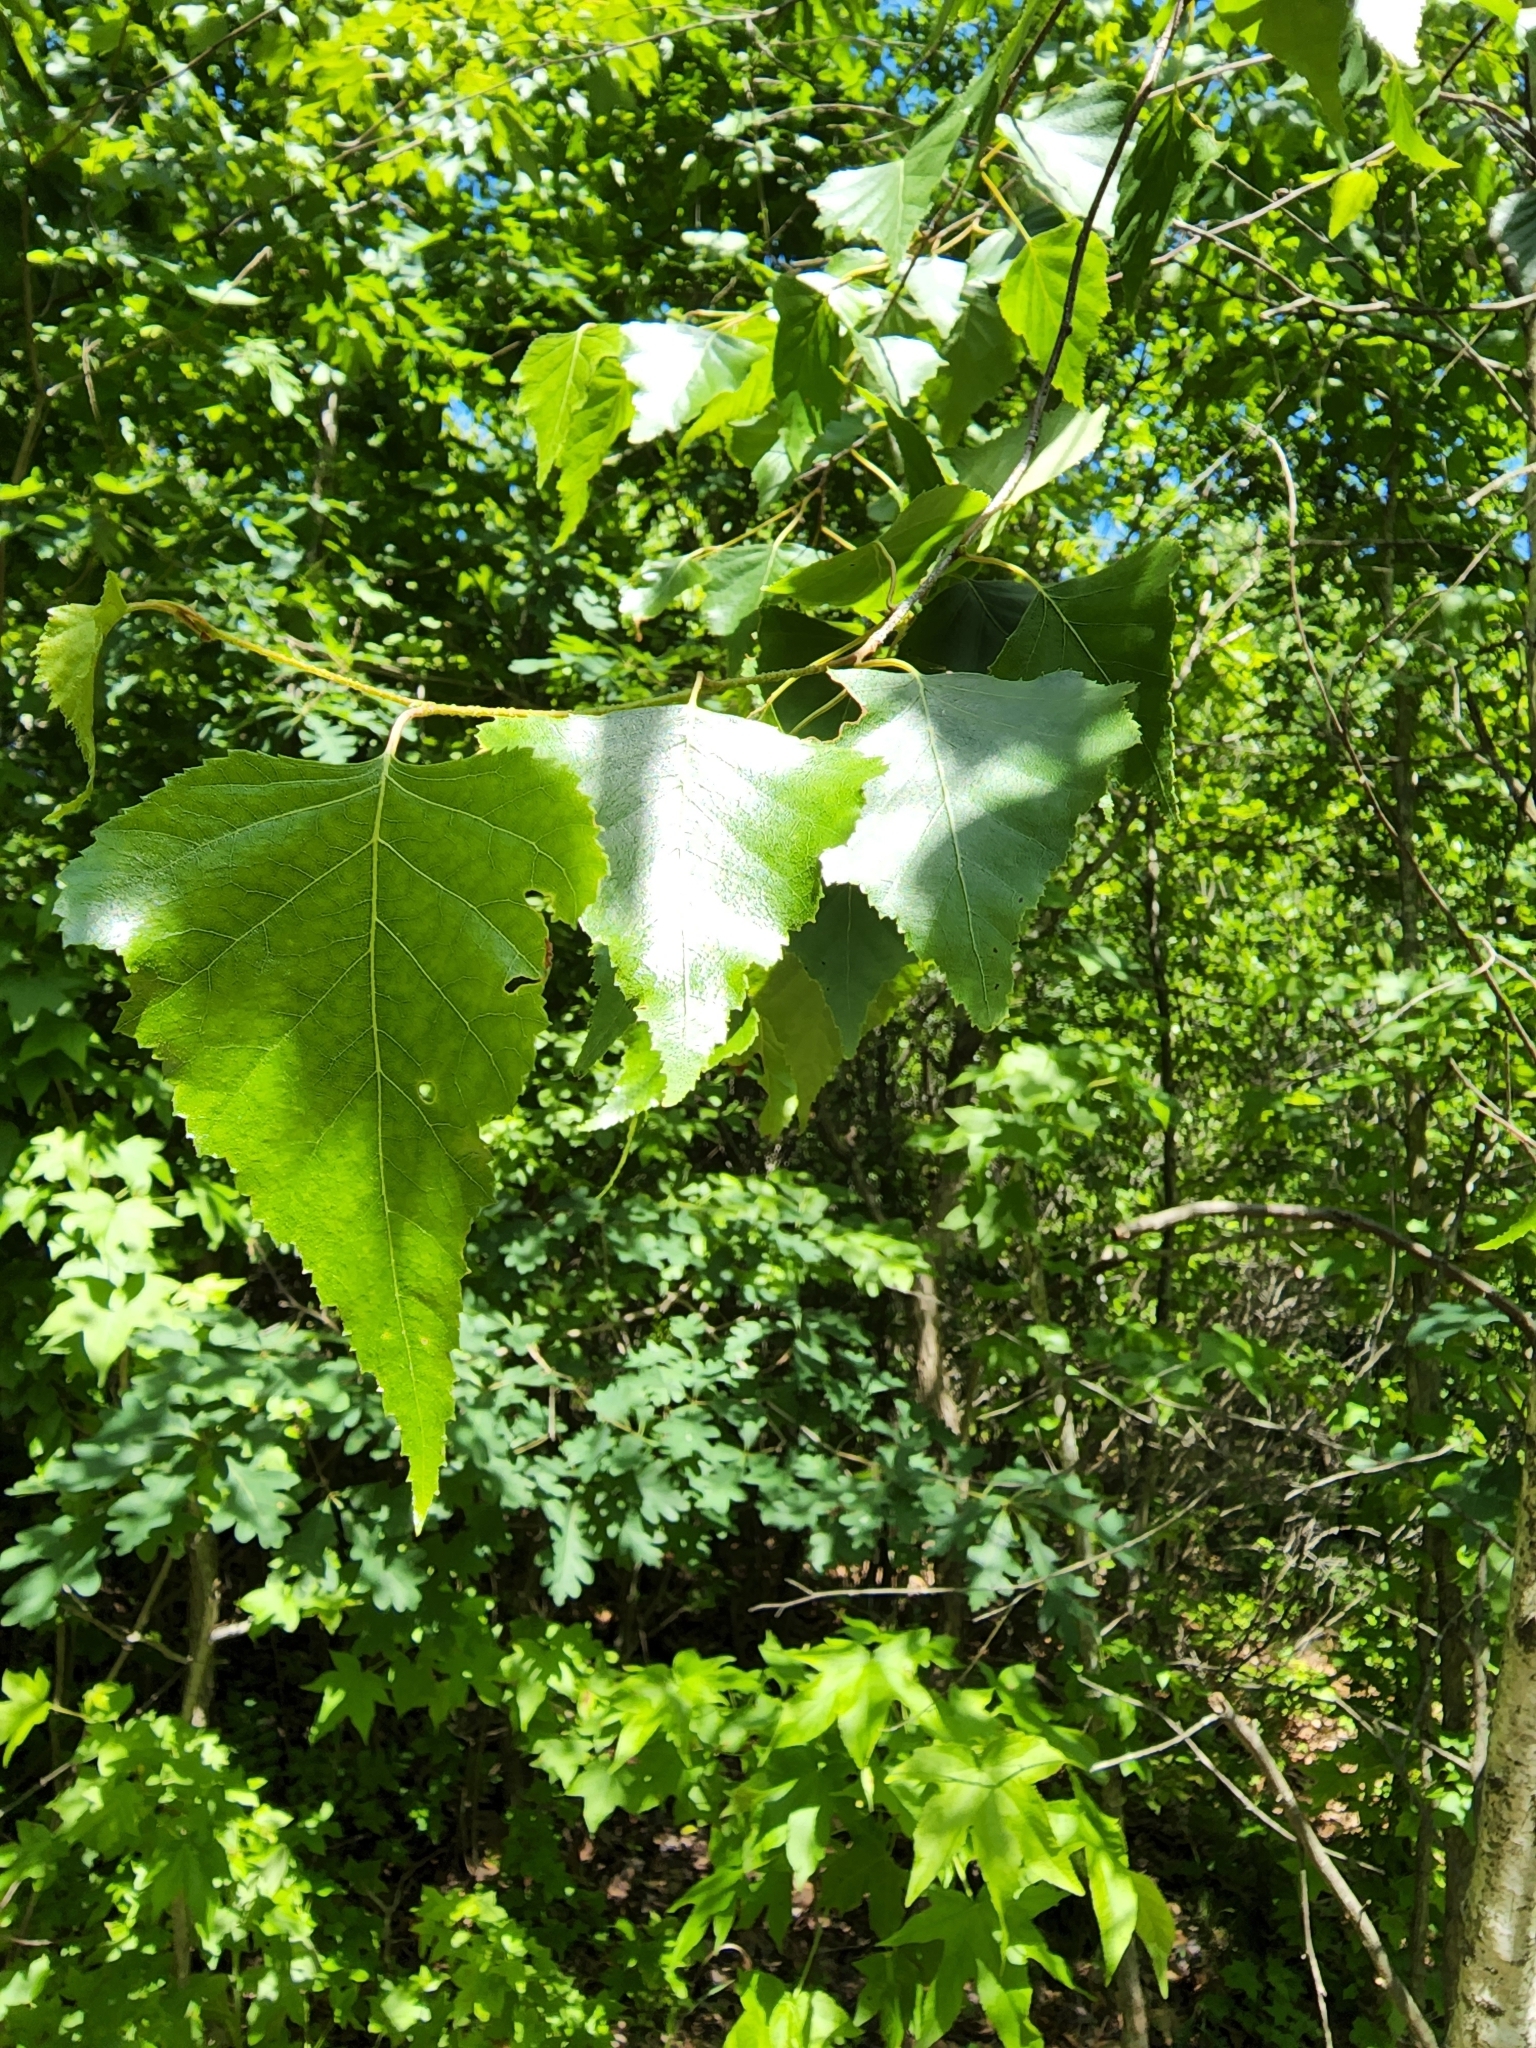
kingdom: Plantae
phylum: Tracheophyta
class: Magnoliopsida
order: Fagales
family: Betulaceae
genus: Betula
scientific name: Betula populifolia
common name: Fire birch
